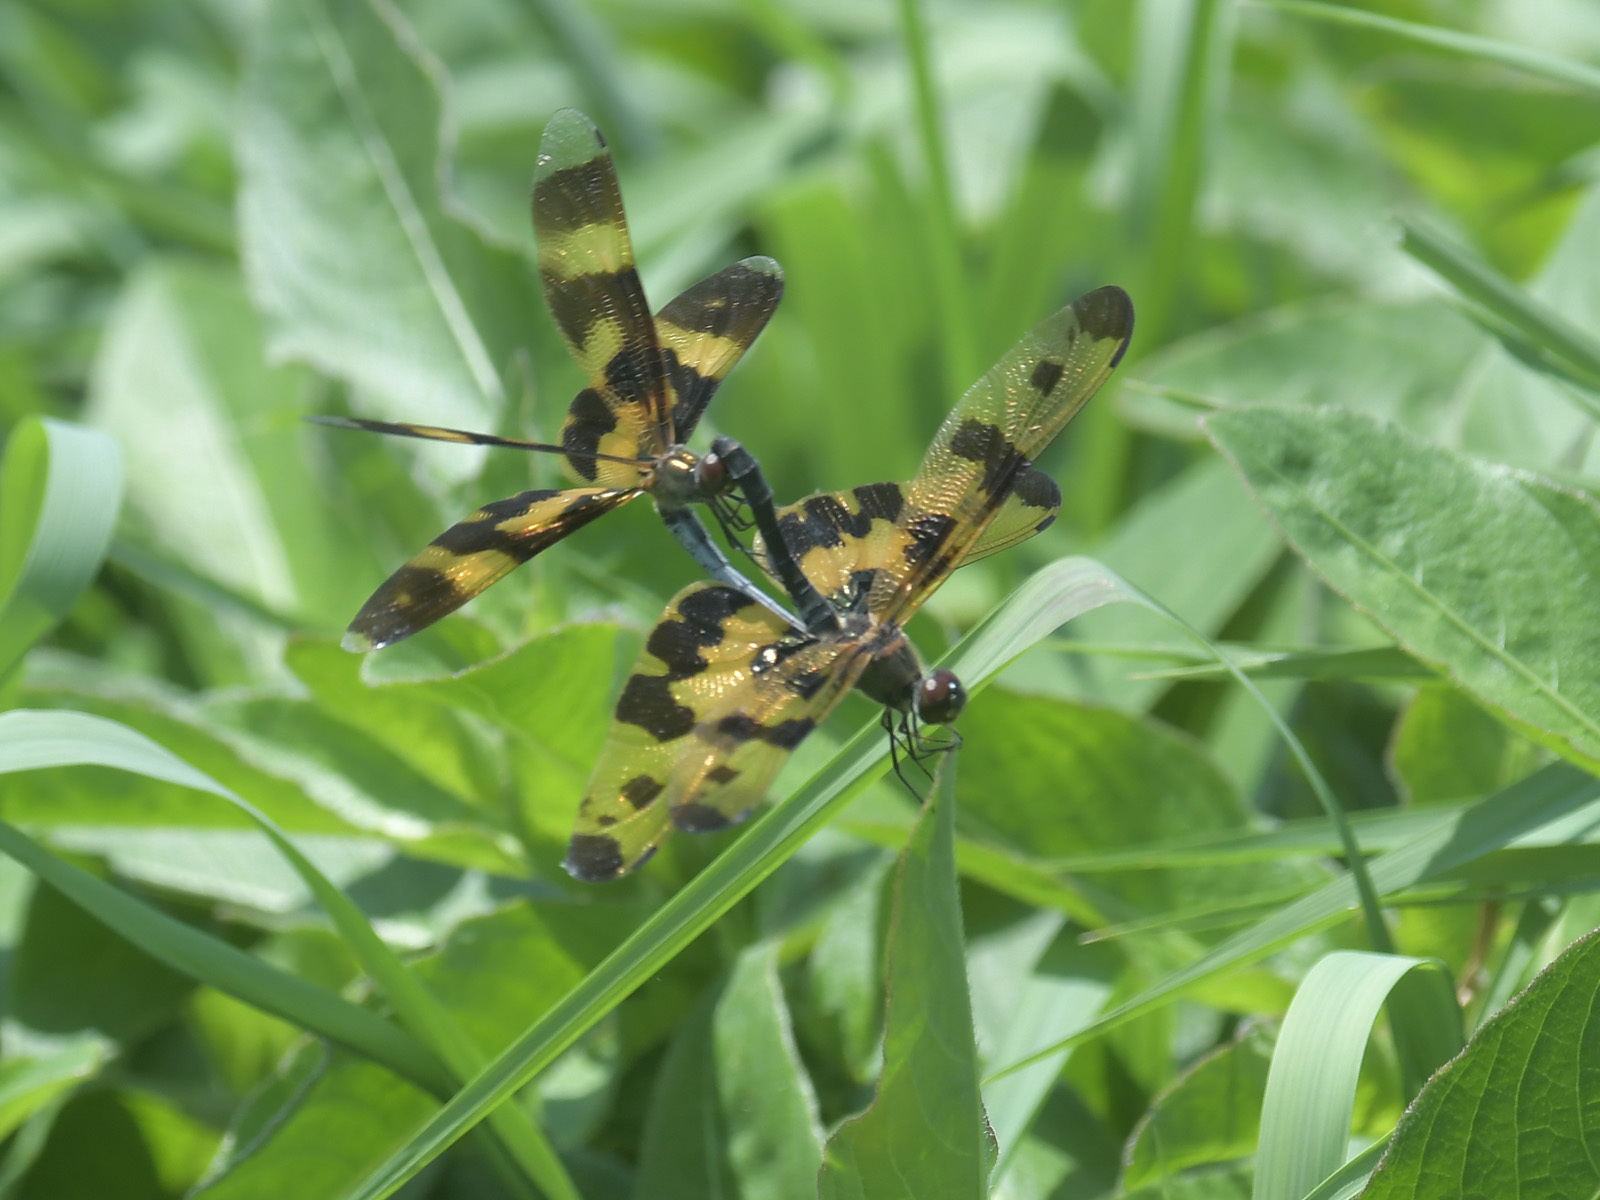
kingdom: Animalia
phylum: Arthropoda
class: Insecta
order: Odonata
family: Libellulidae
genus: Rhyothemis
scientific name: Rhyothemis variegata
